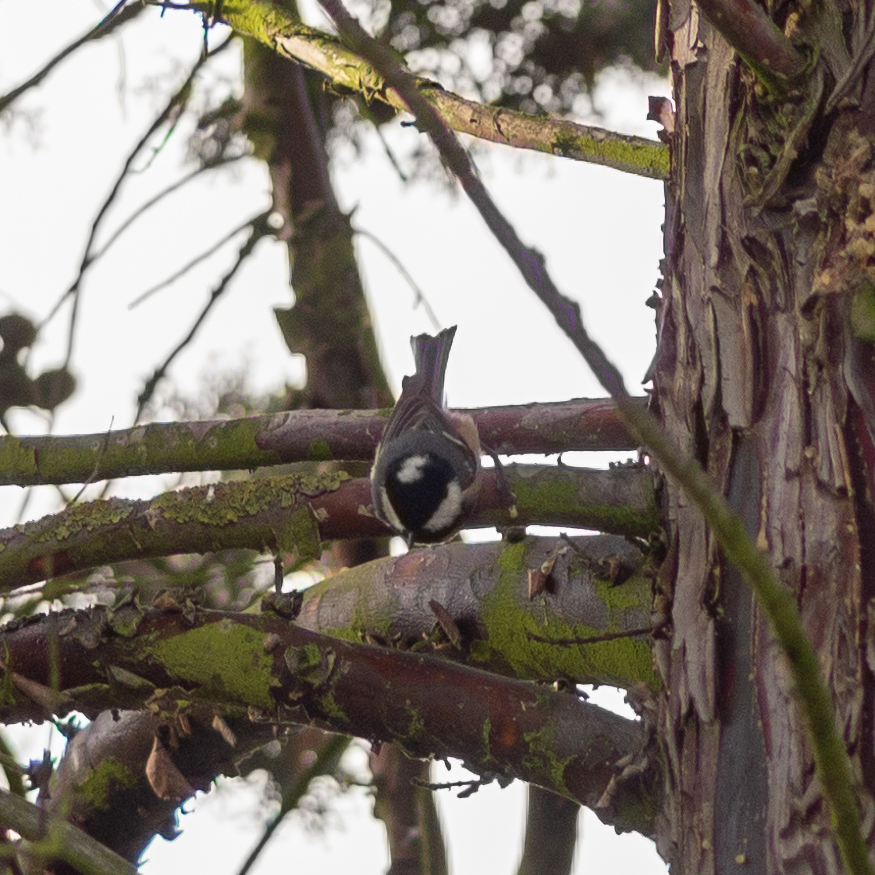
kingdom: Animalia
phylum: Chordata
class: Aves
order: Passeriformes
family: Paridae
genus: Periparus
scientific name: Periparus ater
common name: Coal tit
